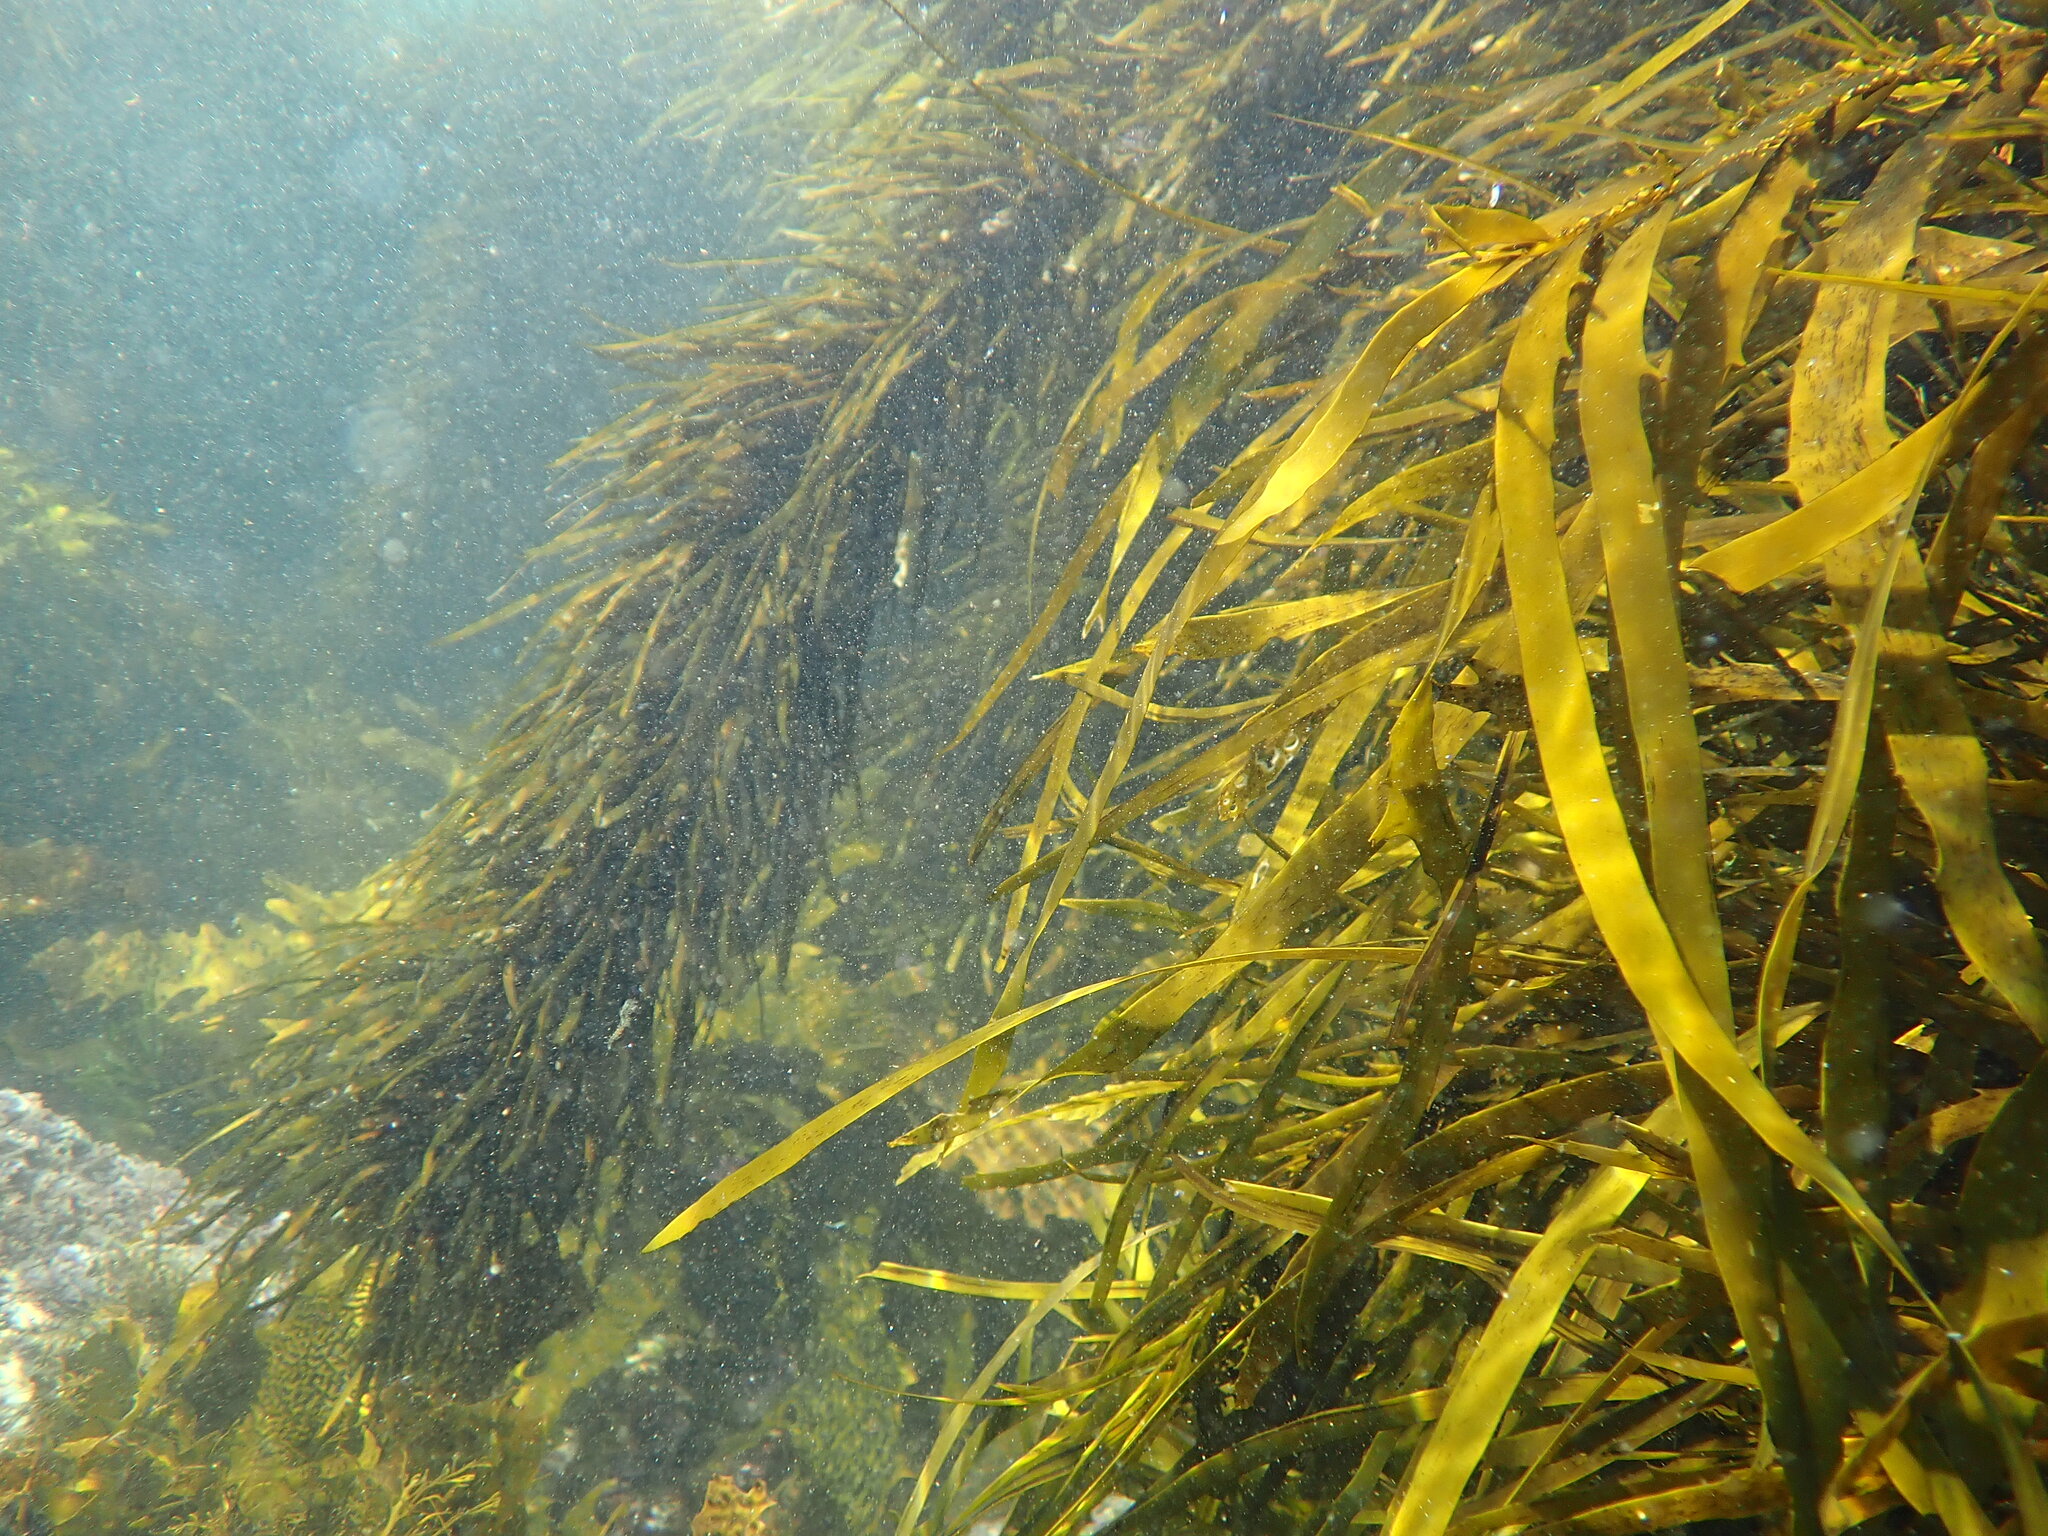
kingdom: Chromista
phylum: Ochrophyta
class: Phaeophyceae
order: Fucales
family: Seirococcaceae
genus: Phyllospora
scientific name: Phyllospora
